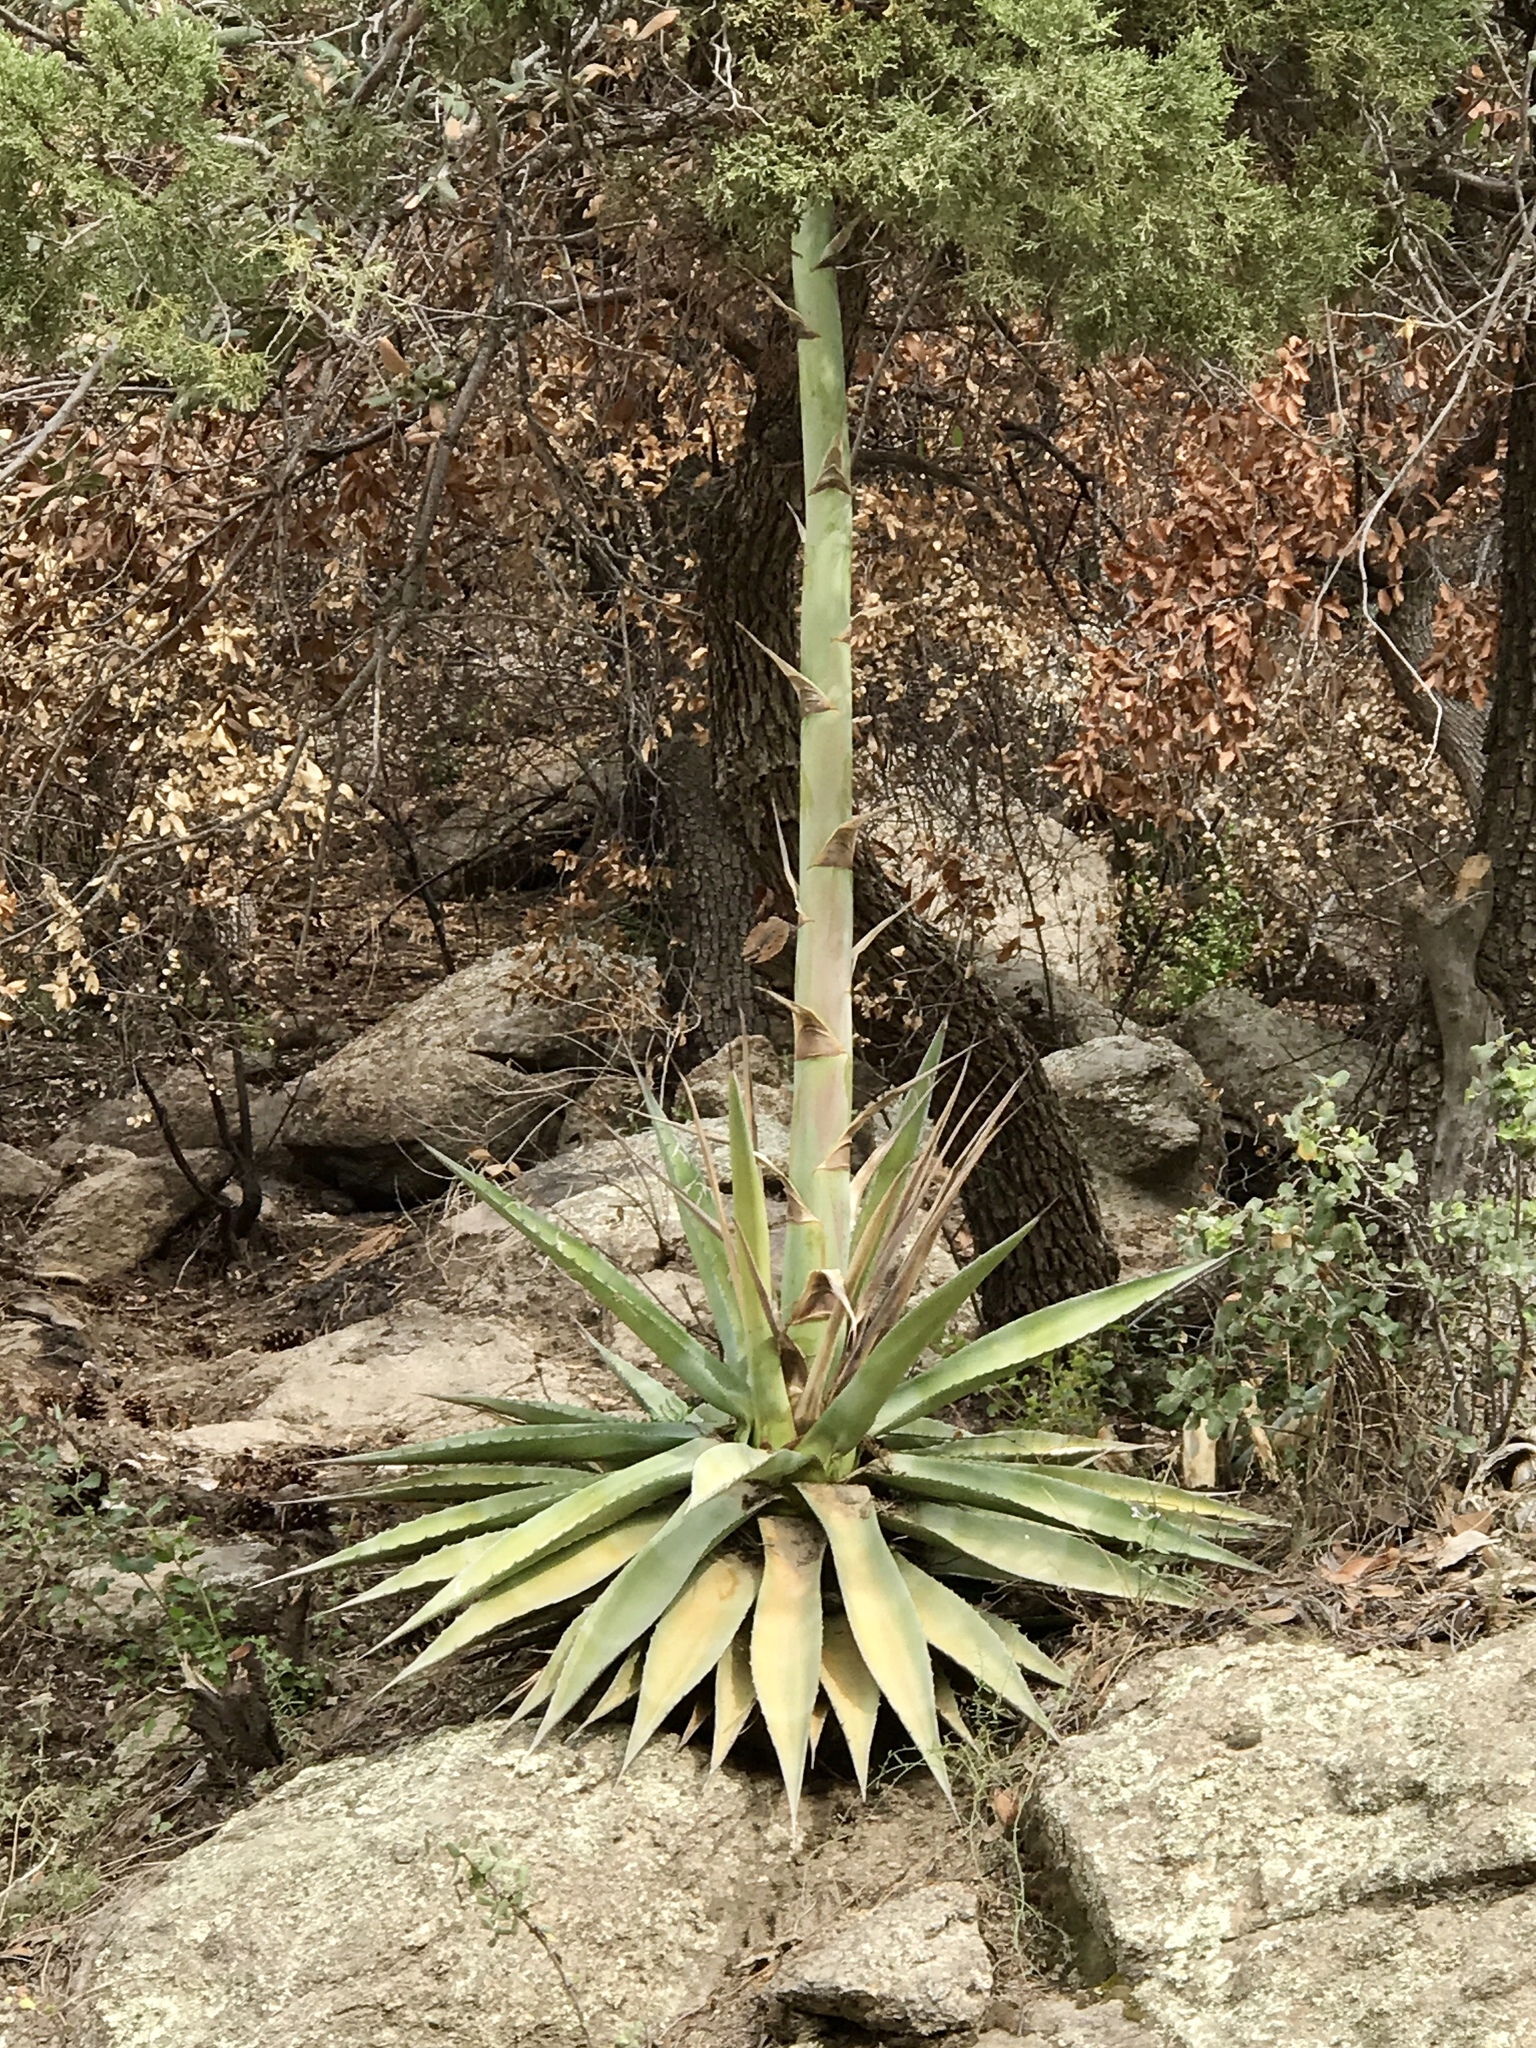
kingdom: Plantae
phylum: Tracheophyta
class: Liliopsida
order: Asparagales
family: Asparagaceae
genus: Agave
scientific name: Agave chrysantha
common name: Golden-flowered agave
